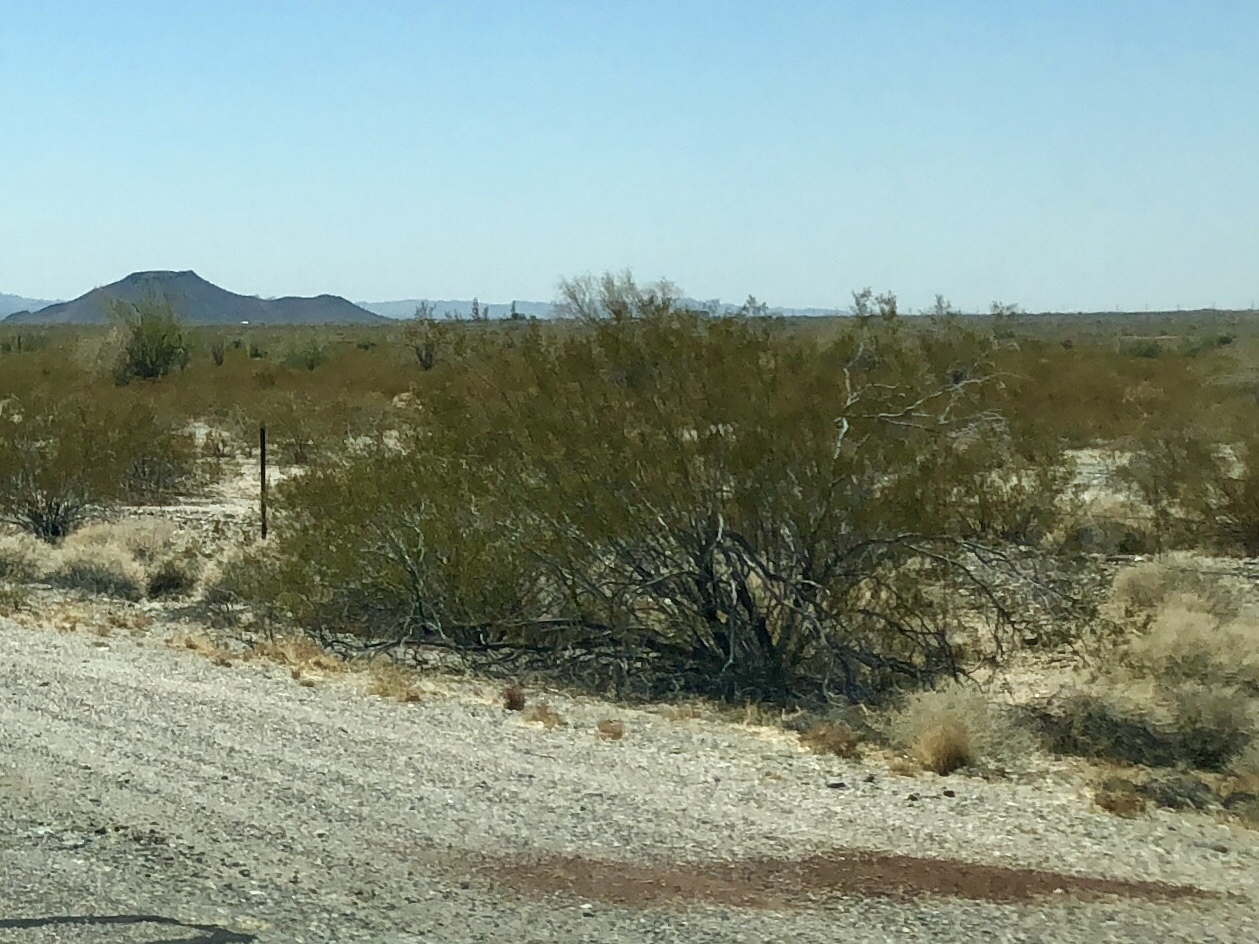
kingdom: Plantae
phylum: Tracheophyta
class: Magnoliopsida
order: Zygophyllales
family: Zygophyllaceae
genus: Larrea
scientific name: Larrea tridentata
